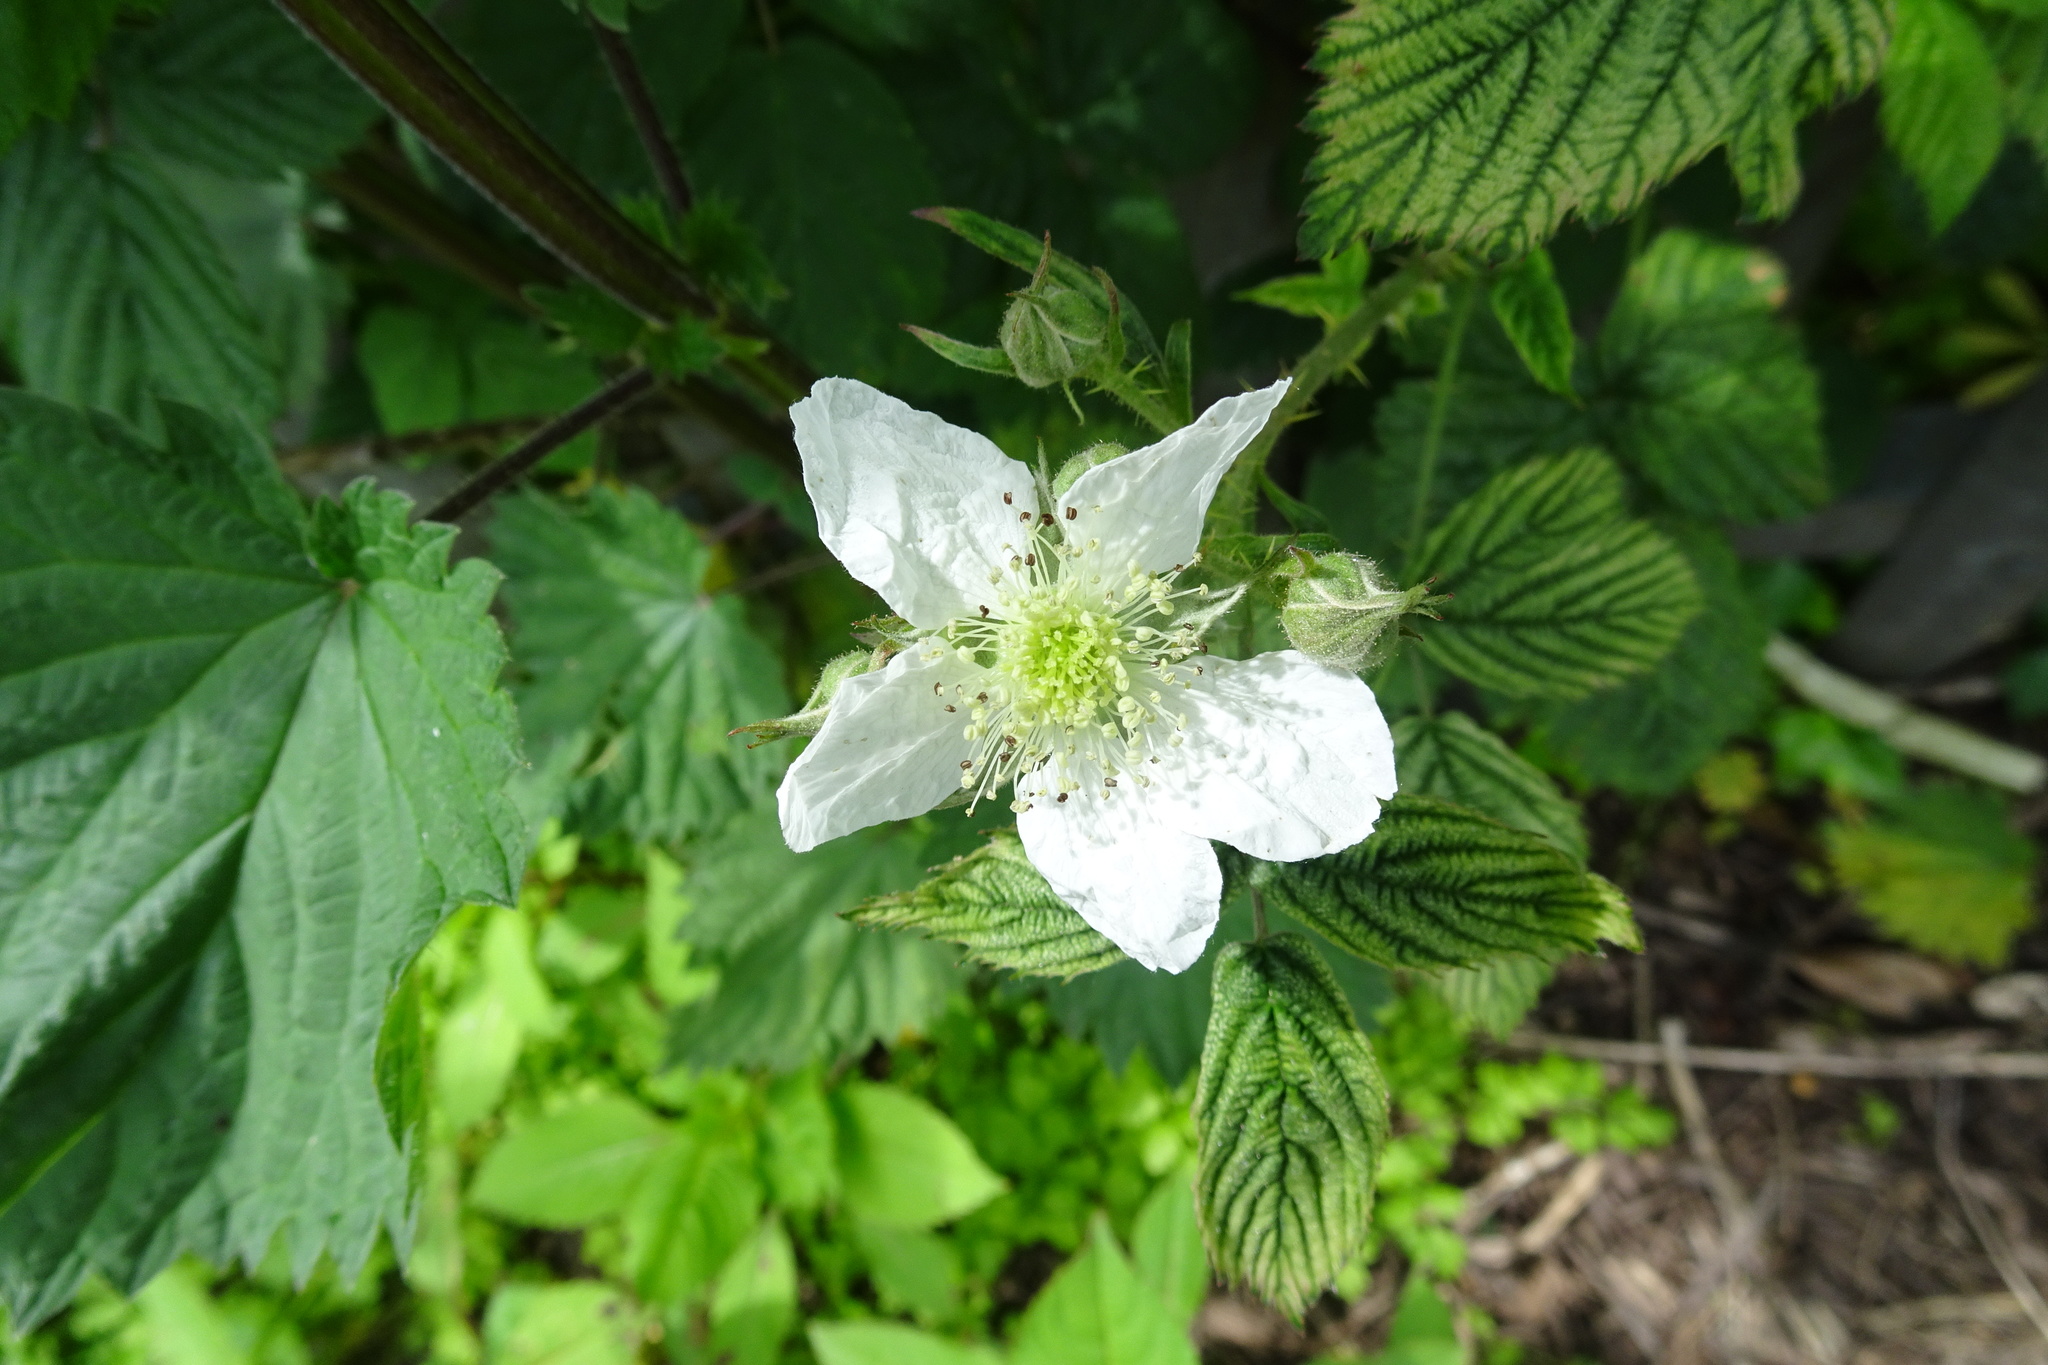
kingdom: Plantae
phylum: Tracheophyta
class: Magnoliopsida
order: Rosales
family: Rosaceae
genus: Rubus
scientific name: Rubus horrefactus
